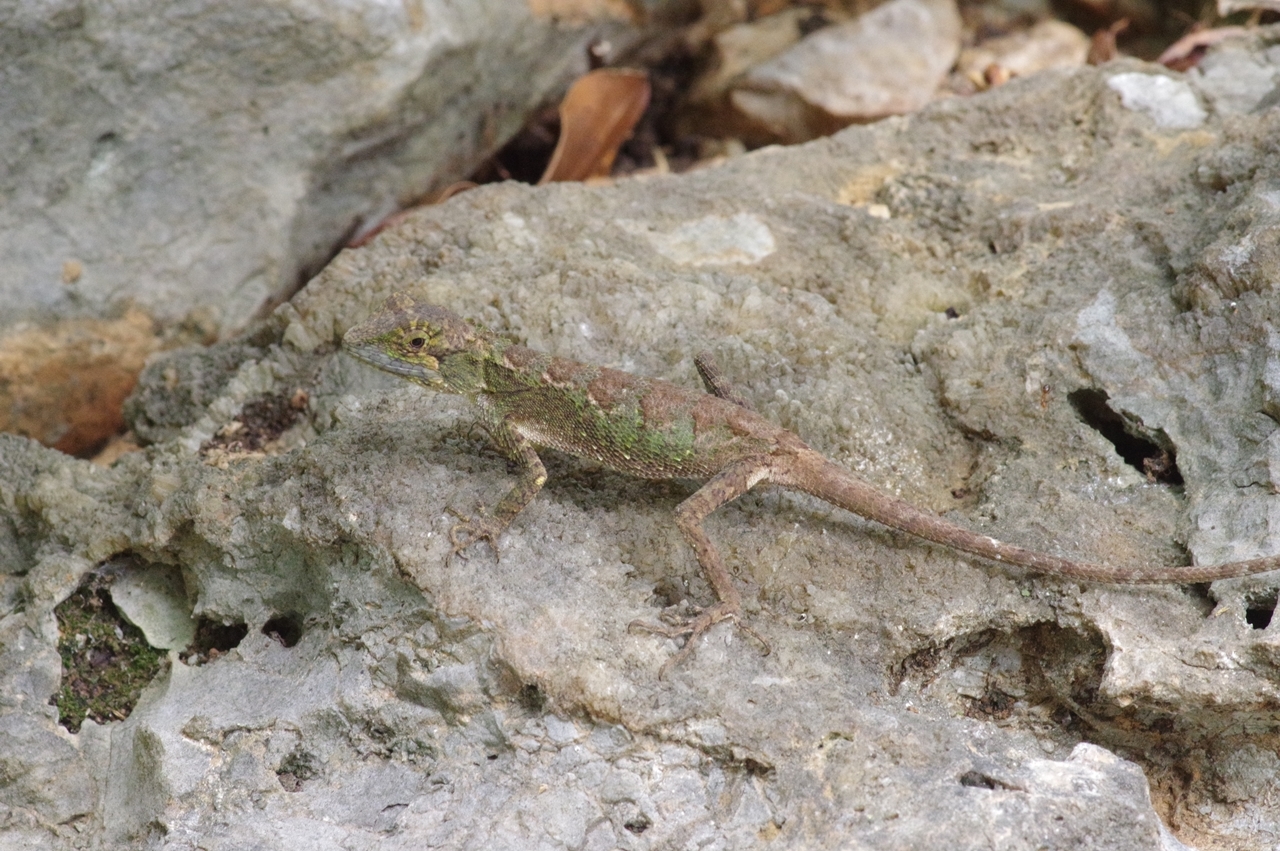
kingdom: Fungi
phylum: Basidiomycota
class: Agaricomycetes
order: Boletales
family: Diplocystidiaceae
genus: Diploderma
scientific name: Diploderma polygonatum
